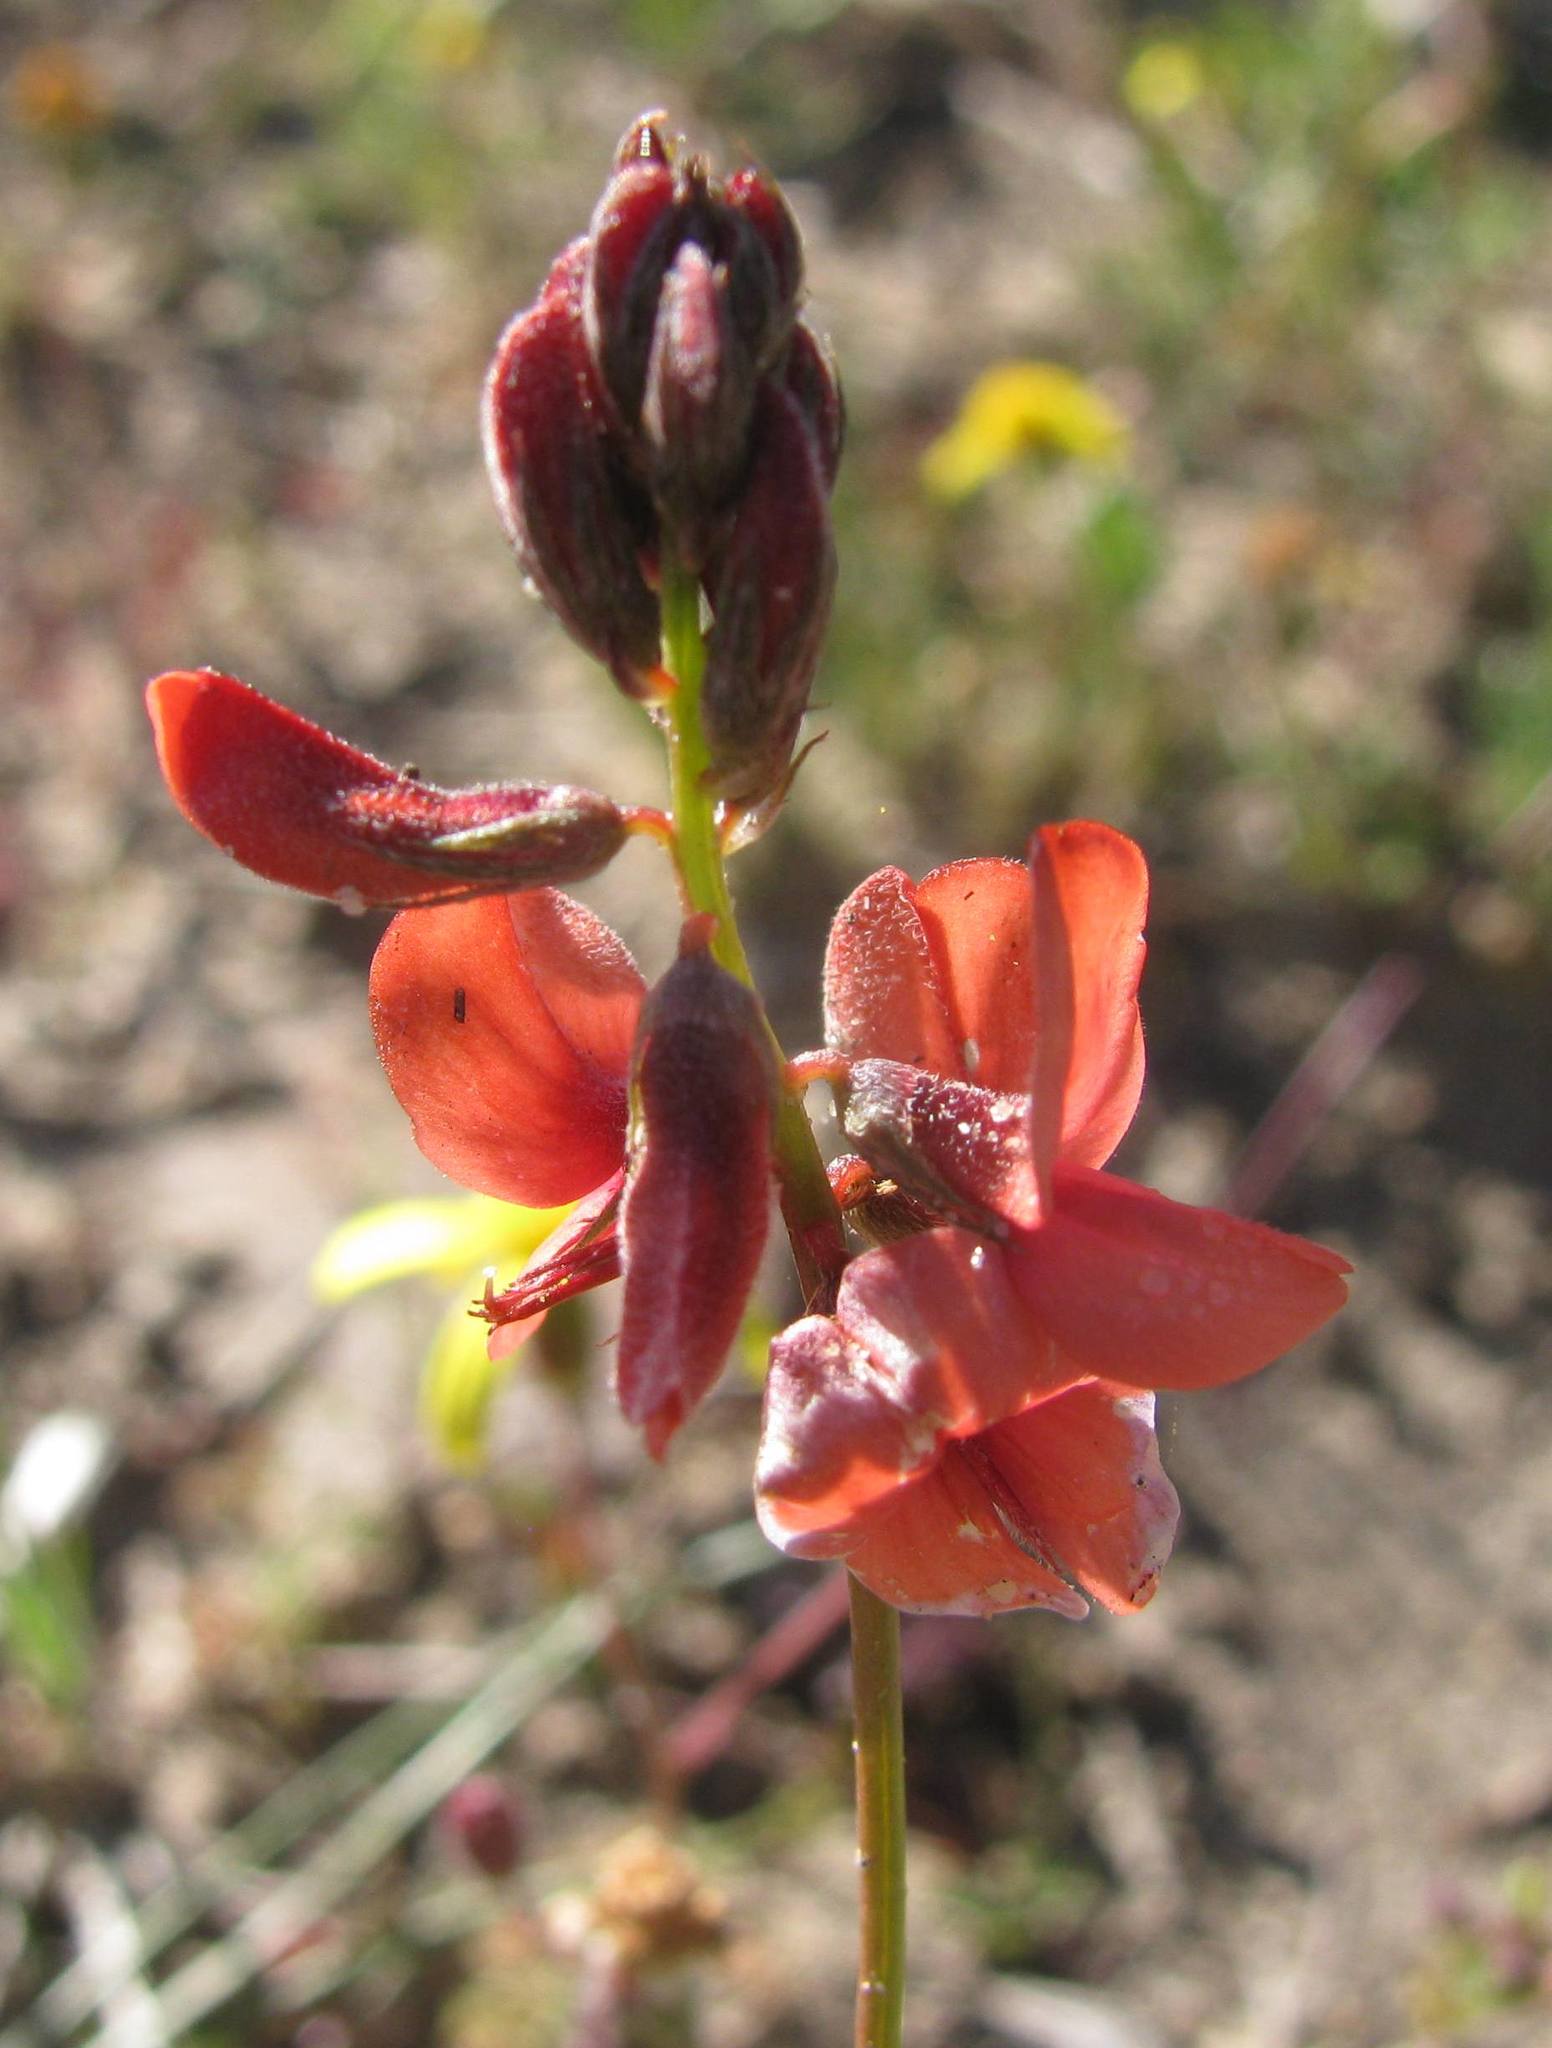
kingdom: Plantae
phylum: Tracheophyta
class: Magnoliopsida
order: Fabales
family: Fabaceae
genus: Indigofera
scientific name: Indigofera psoraloides
